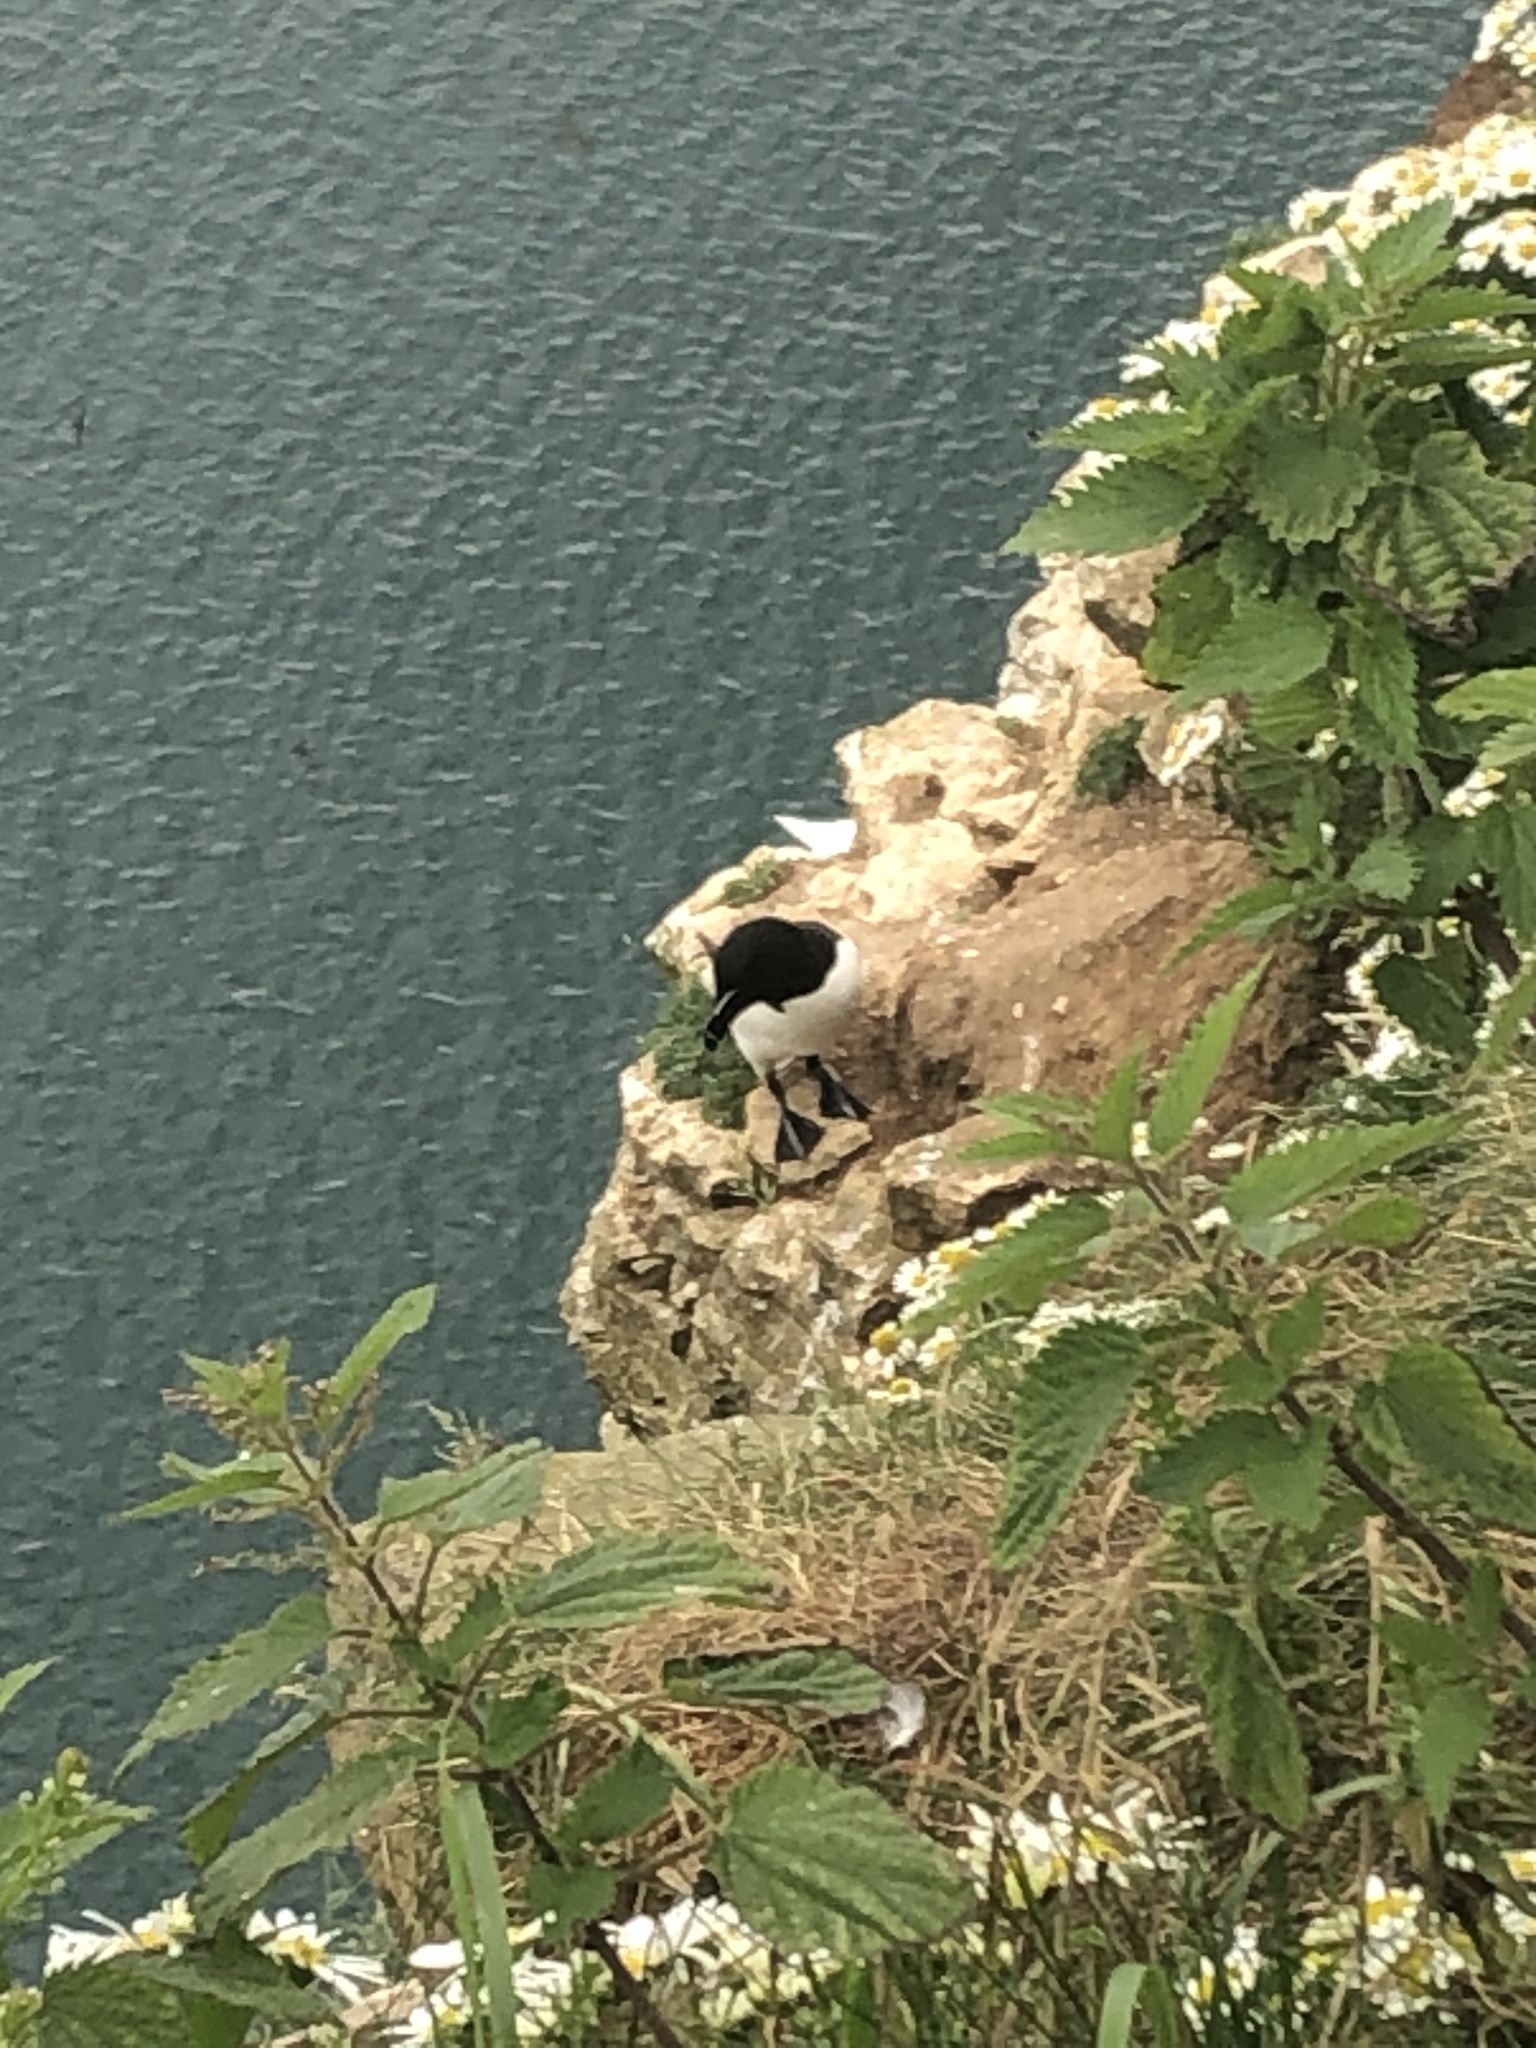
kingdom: Animalia
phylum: Chordata
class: Aves
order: Charadriiformes
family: Alcidae
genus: Alca
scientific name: Alca torda
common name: Razorbill
